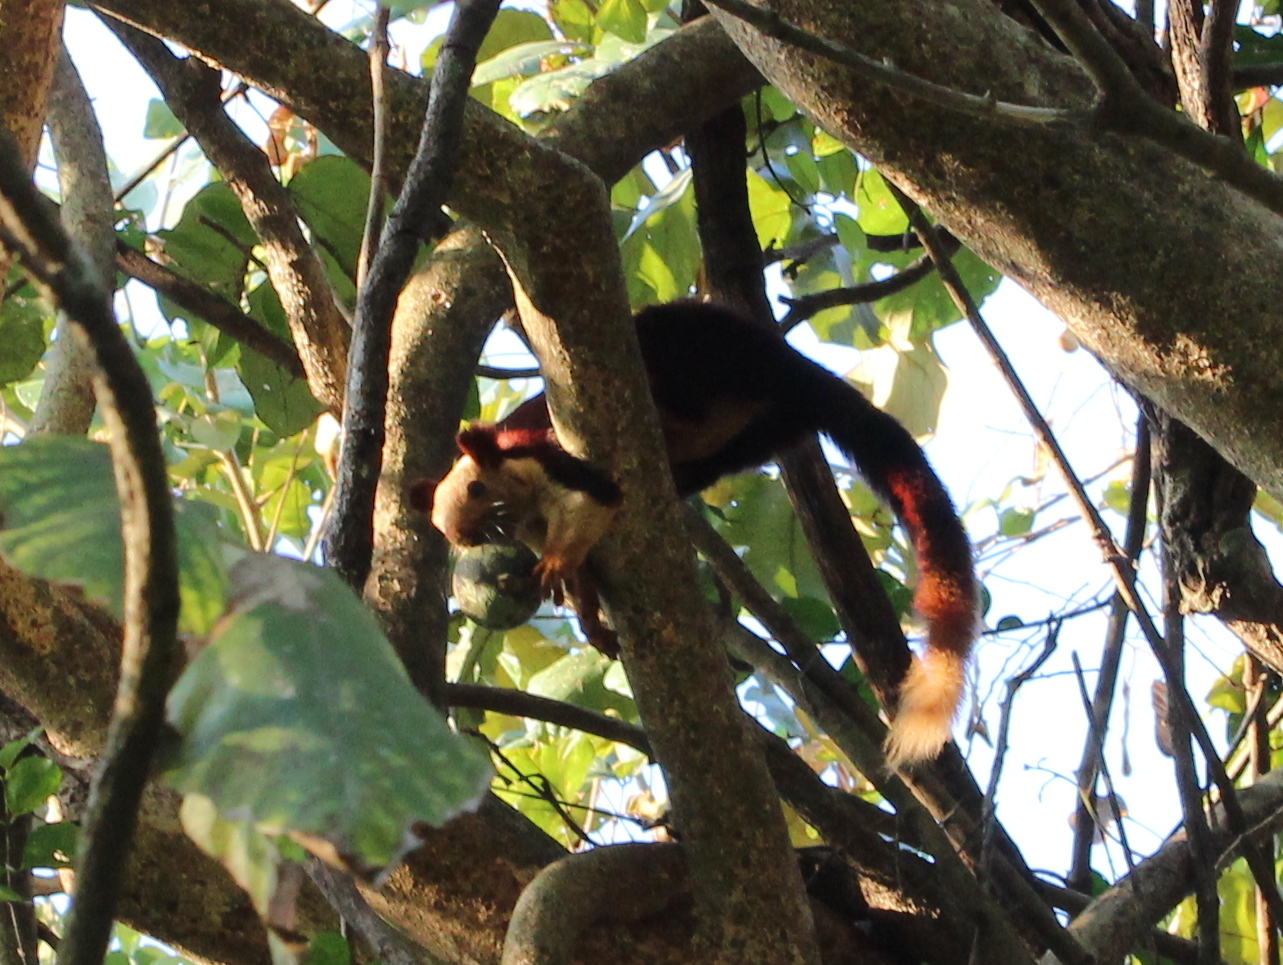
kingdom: Animalia
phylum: Chordata
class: Mammalia
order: Rodentia
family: Sciuridae
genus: Ratufa
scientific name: Ratufa indica
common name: Indian giant squirrel
